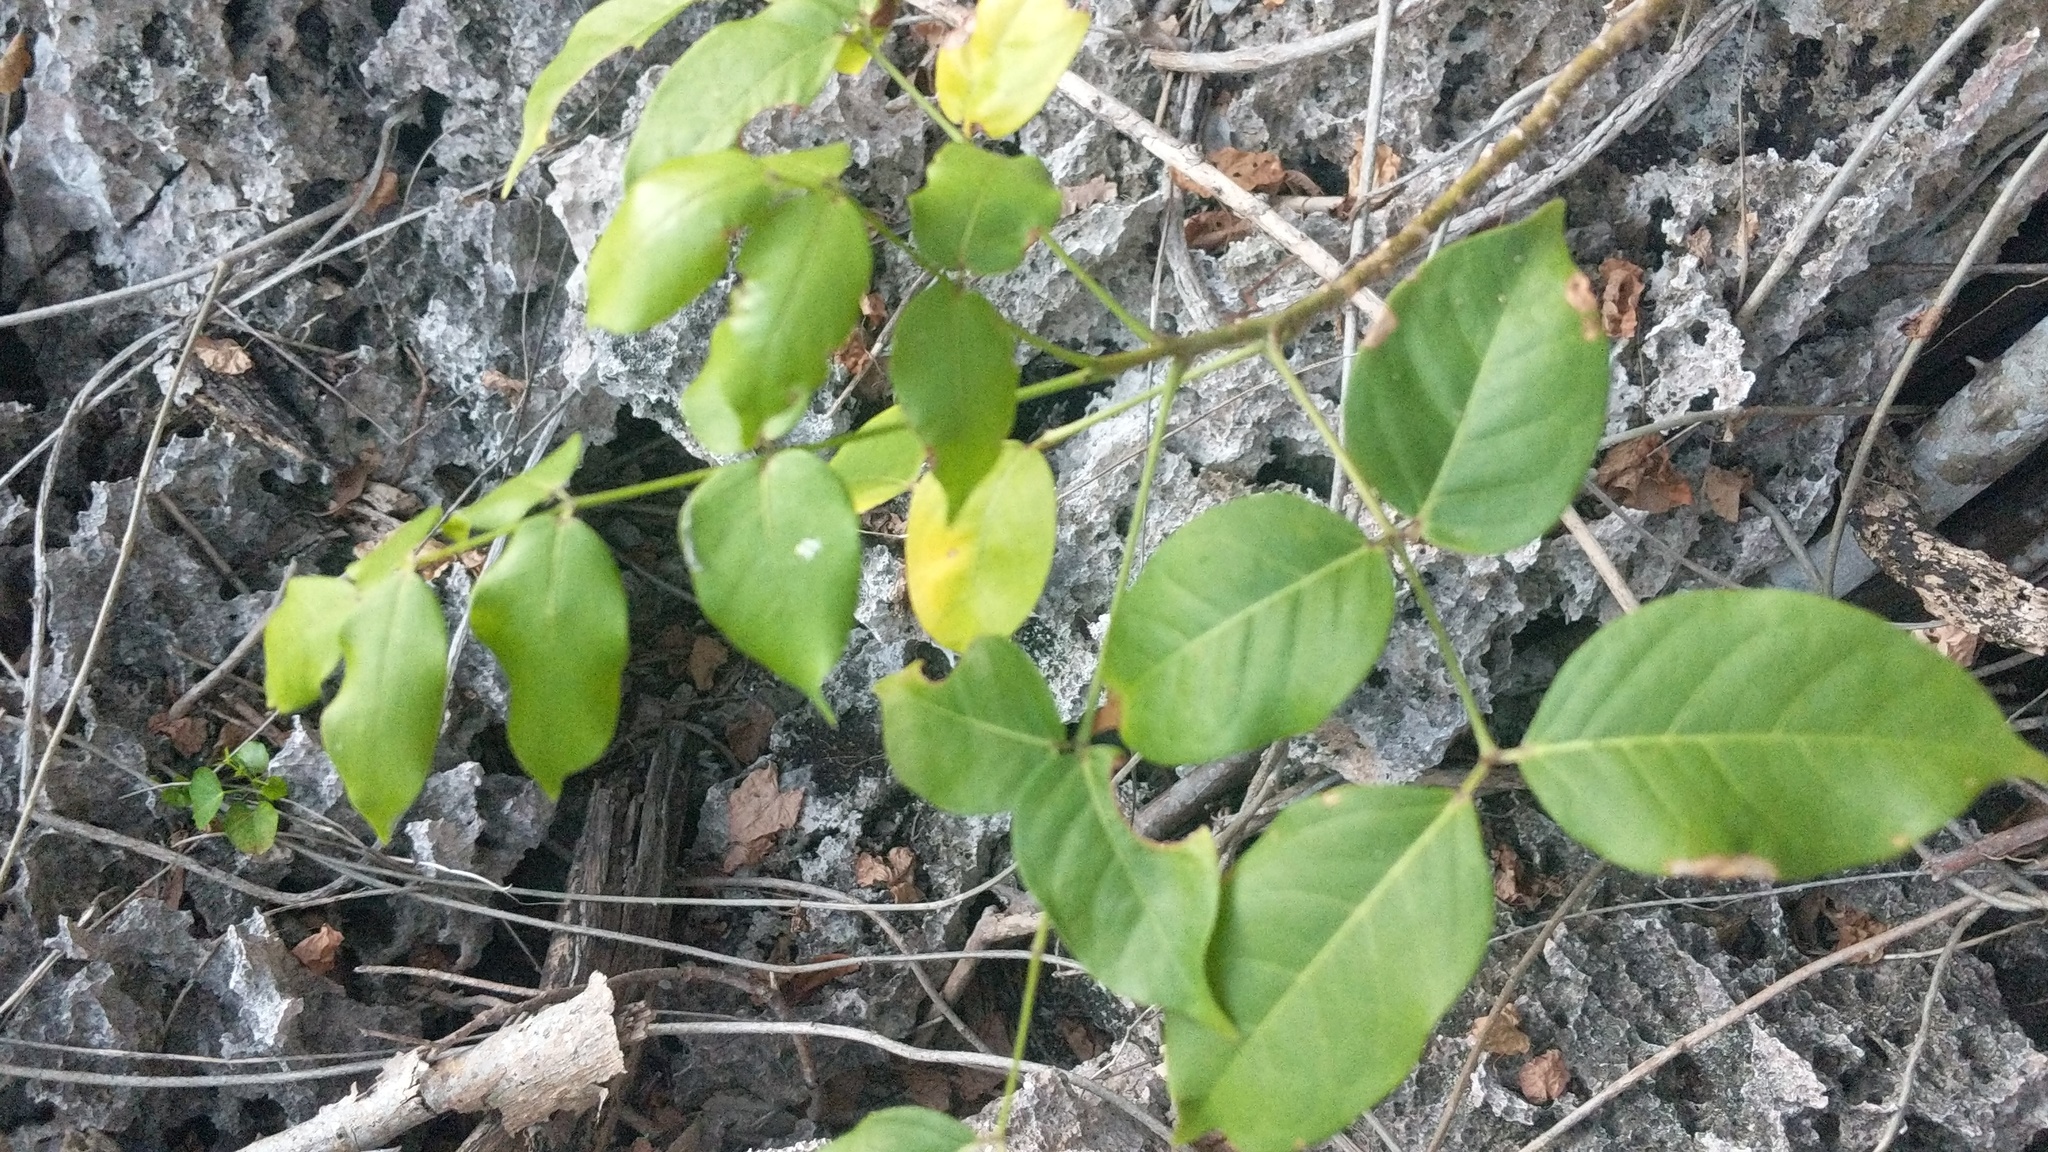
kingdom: Plantae
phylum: Tracheophyta
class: Magnoliopsida
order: Sapindales
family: Burseraceae
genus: Bursera
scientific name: Bursera simaruba
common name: Turpentine tree
